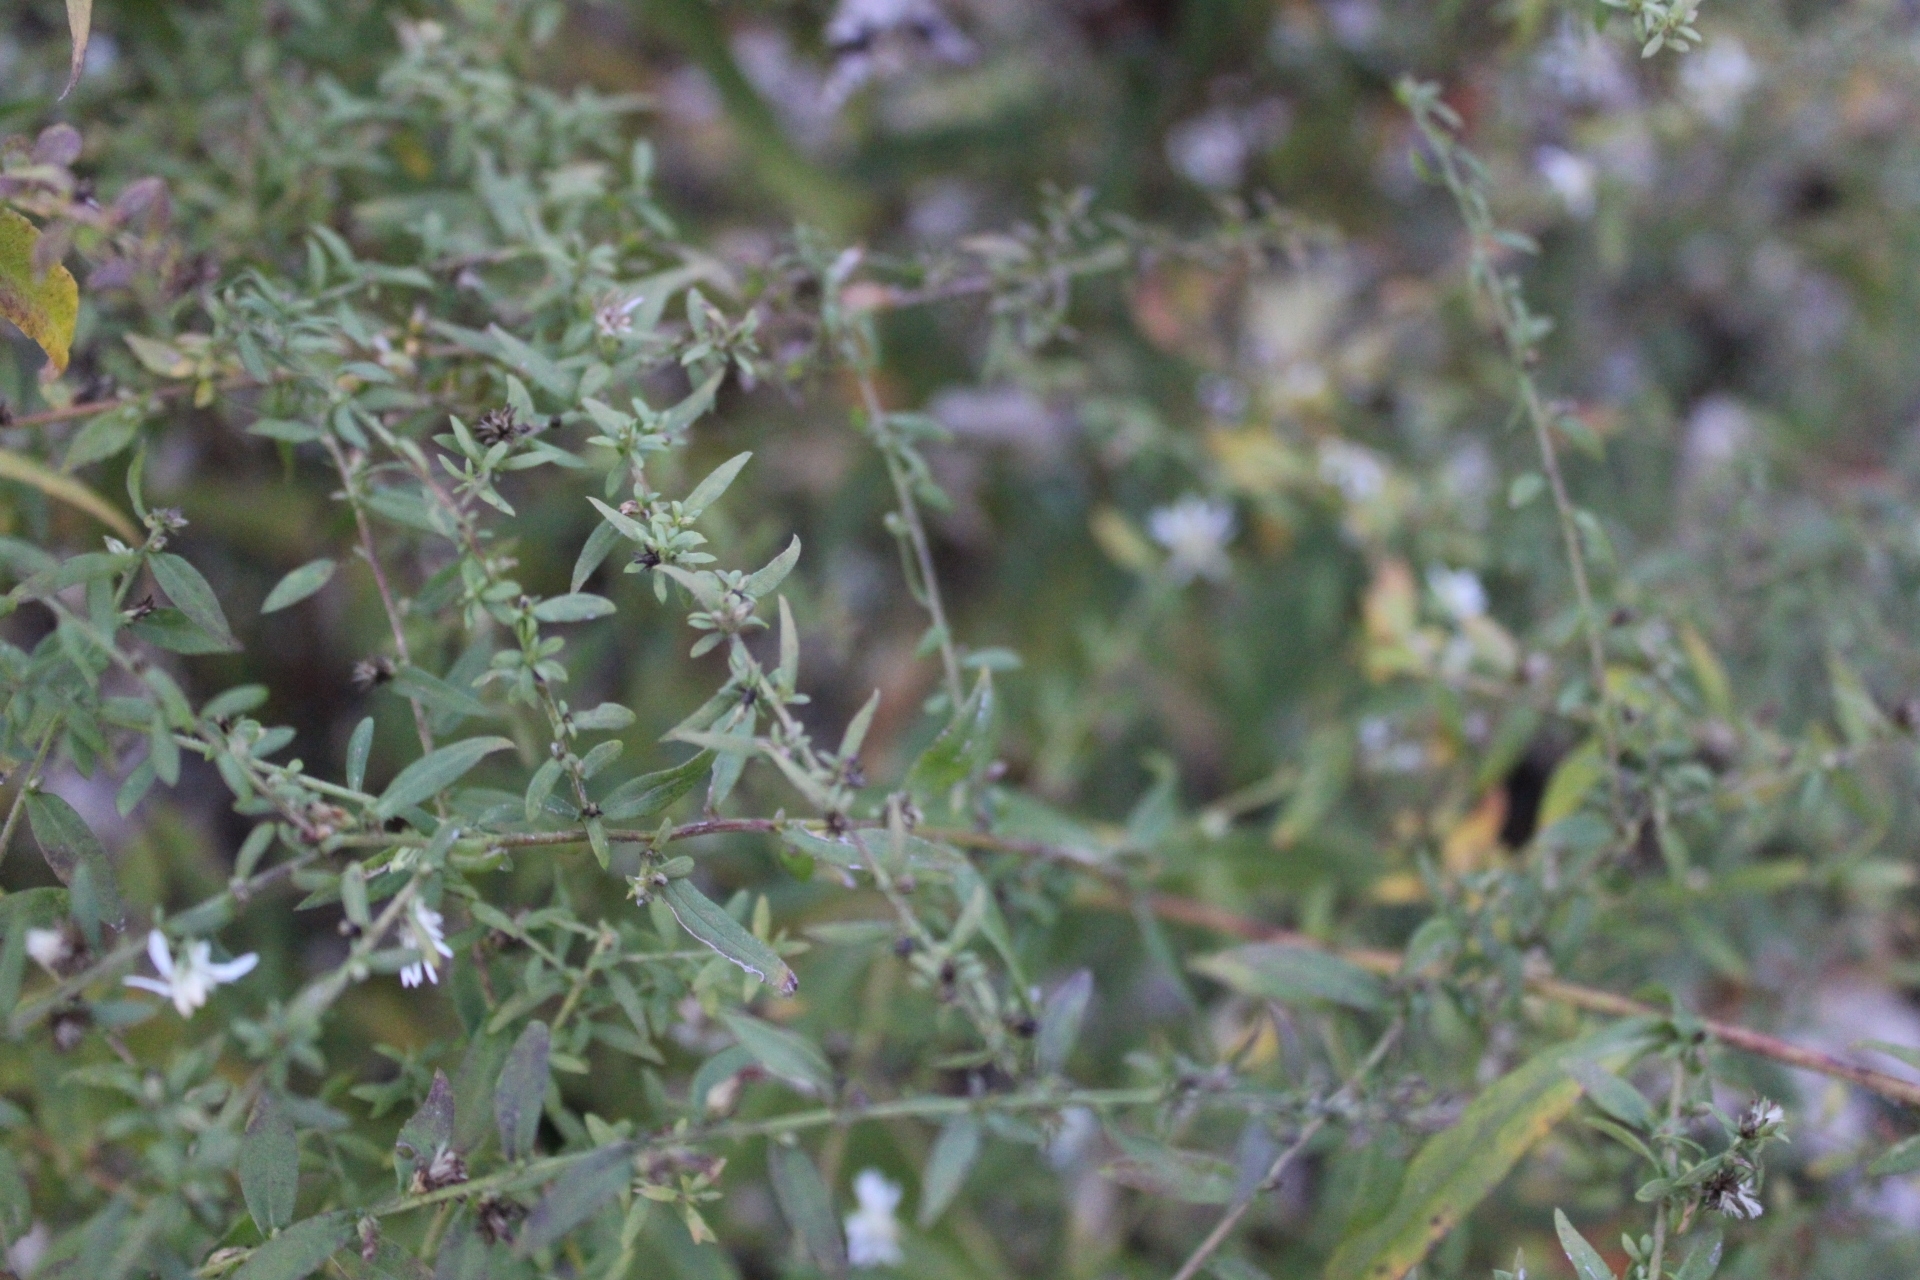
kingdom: Plantae
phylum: Tracheophyta
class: Magnoliopsida
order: Asterales
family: Asteraceae
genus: Symphyotrichum
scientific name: Symphyotrichum lateriflorum
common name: Calico aster
